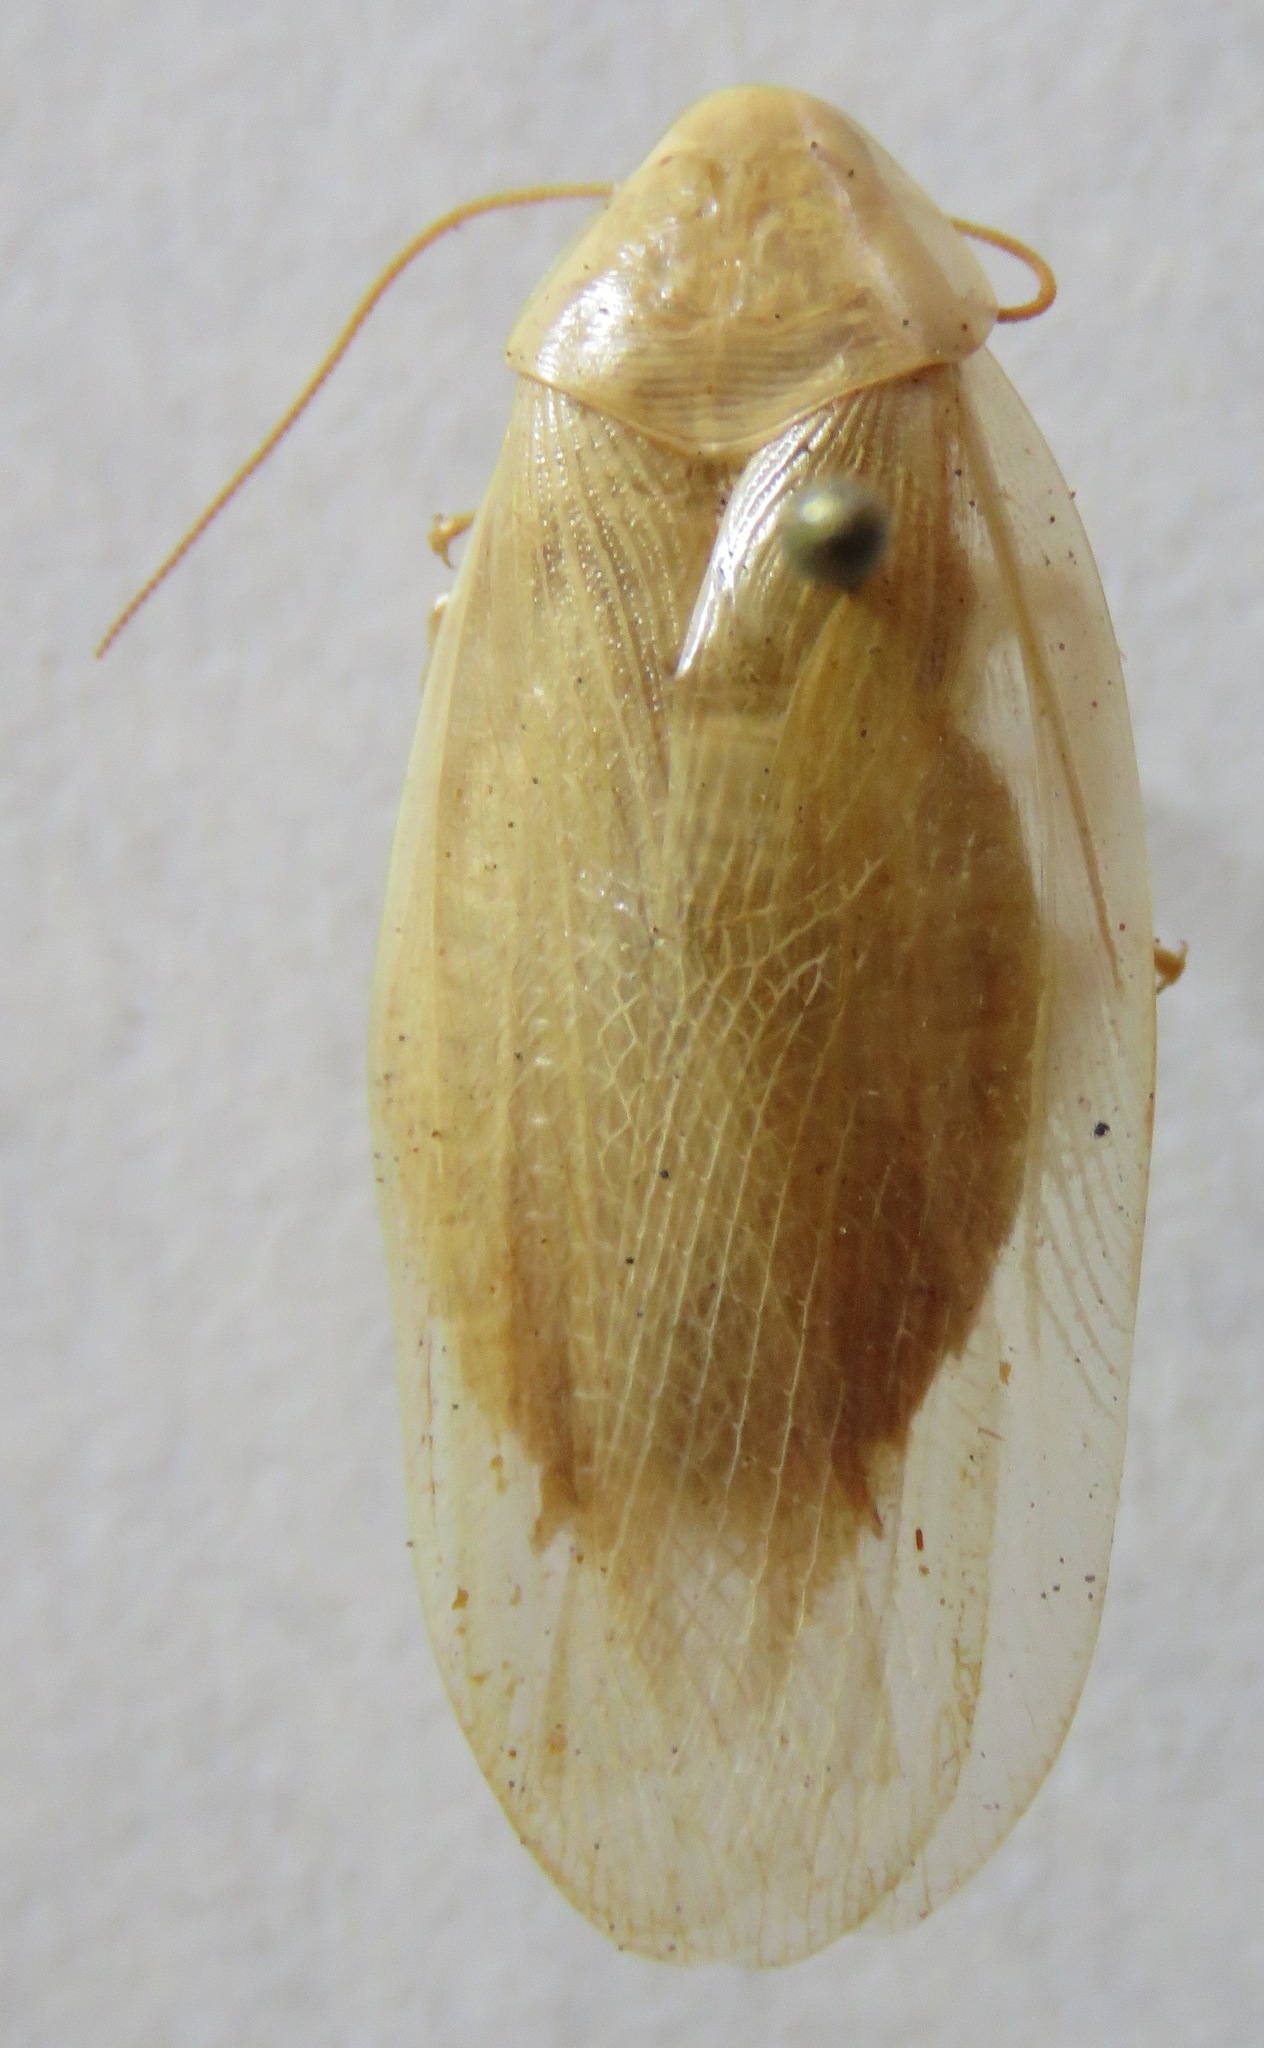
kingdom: Animalia
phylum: Arthropoda
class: Insecta
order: Blattodea
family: Blaberidae
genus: Panchlora
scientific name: Panchlora nivea
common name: Cuban cockroach
